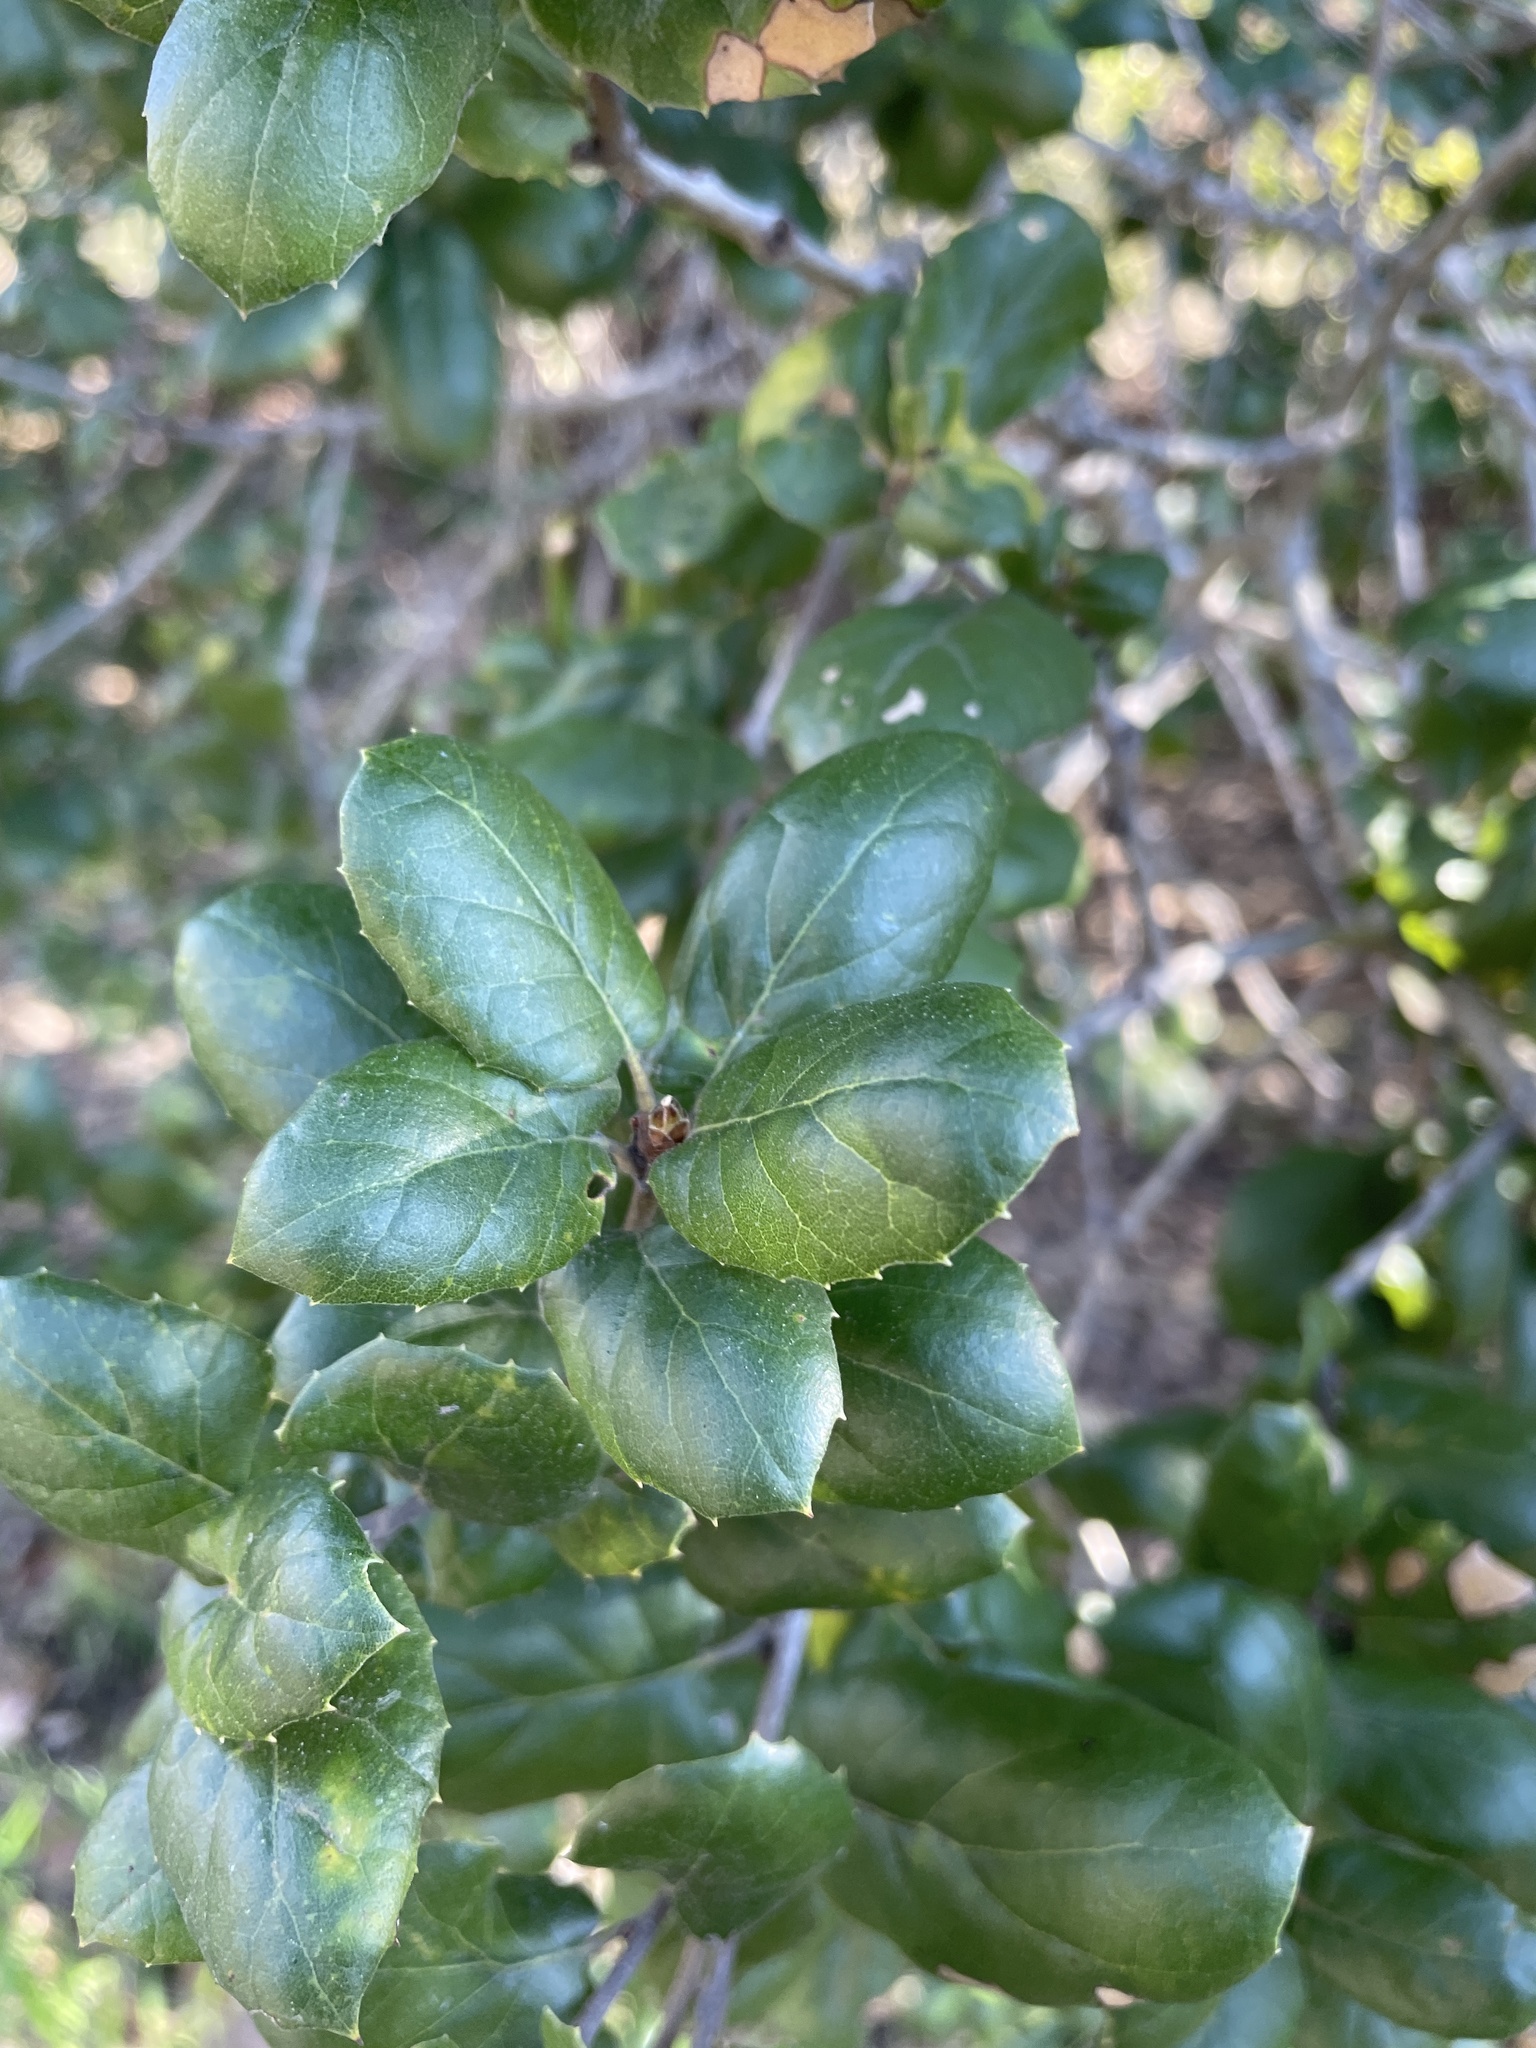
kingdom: Plantae
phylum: Tracheophyta
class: Magnoliopsida
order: Fagales
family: Fagaceae
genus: Quercus
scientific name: Quercus agrifolia
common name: California live oak
